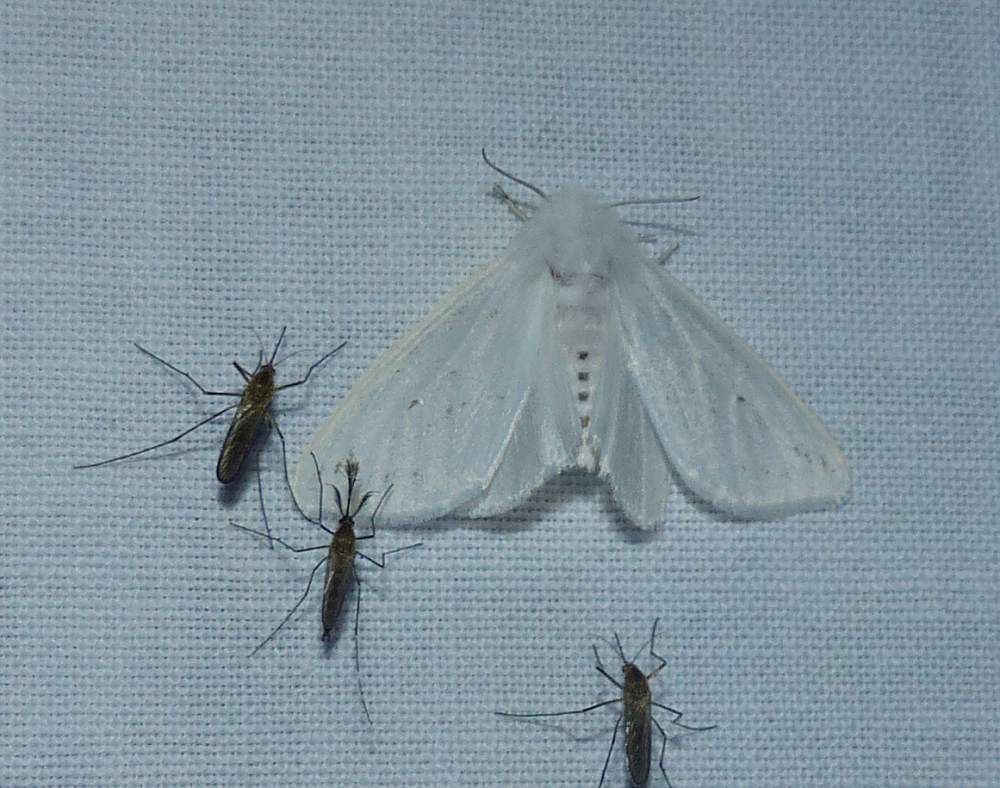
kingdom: Animalia
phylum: Arthropoda
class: Insecta
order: Lepidoptera
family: Erebidae
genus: Hyphantria
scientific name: Hyphantria cunea
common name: American white moth
